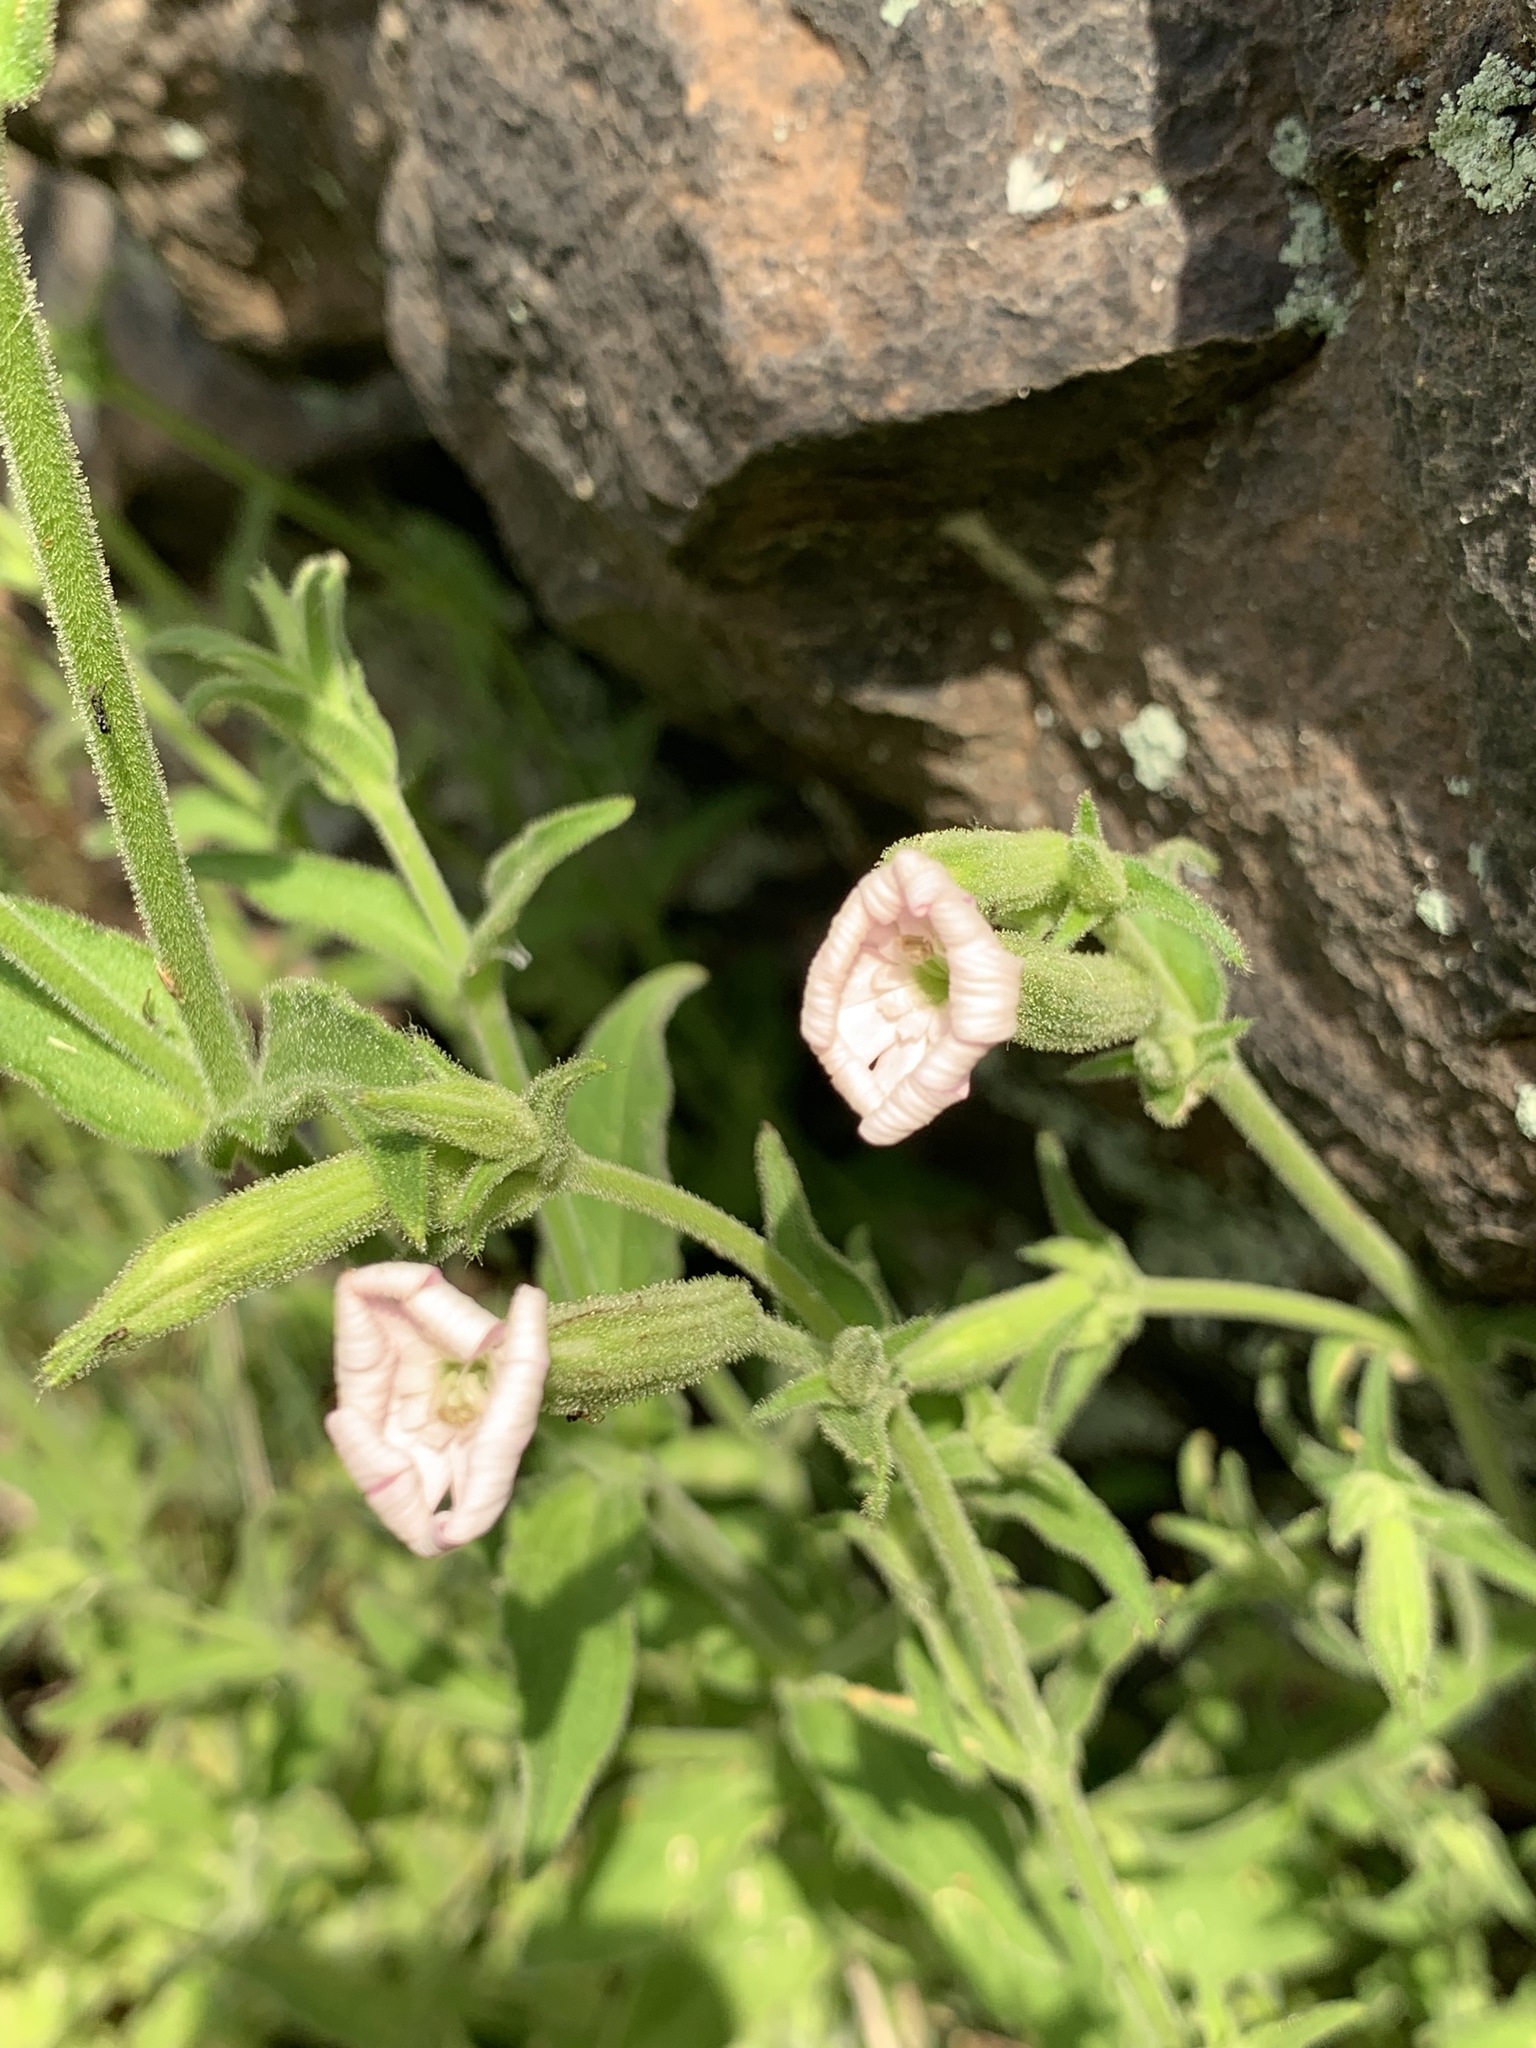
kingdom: Plantae
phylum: Tracheophyta
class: Magnoliopsida
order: Caryophyllales
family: Caryophyllaceae
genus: Silene
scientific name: Silene undulata
